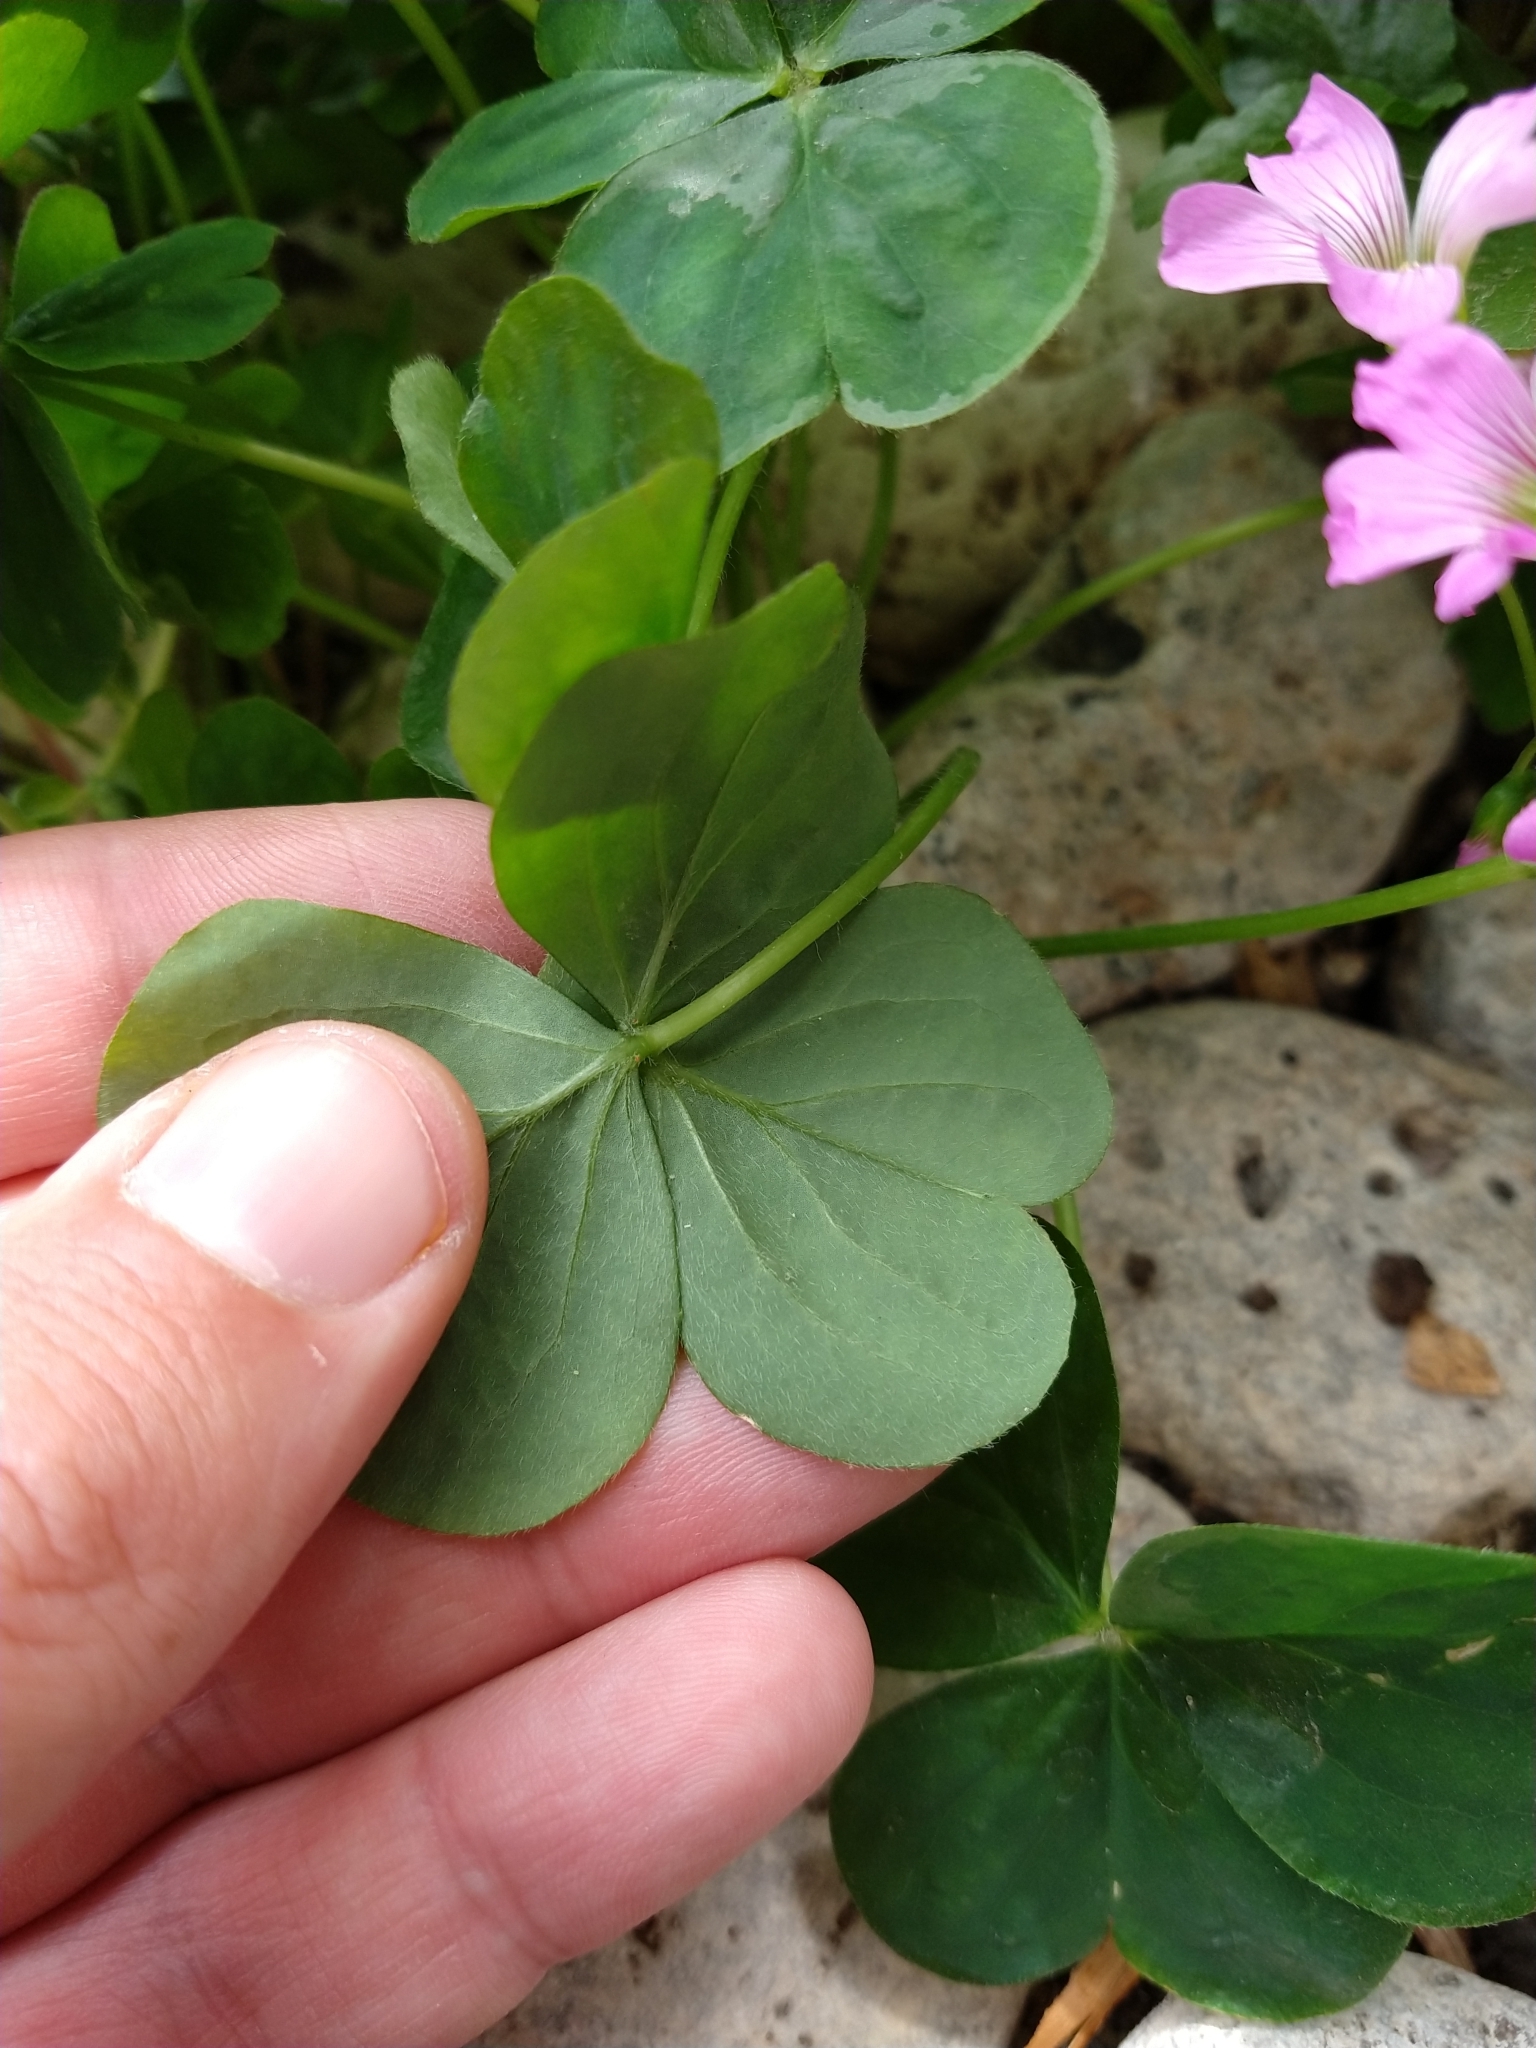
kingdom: Plantae
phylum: Tracheophyta
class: Magnoliopsida
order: Oxalidales
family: Oxalidaceae
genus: Oxalis
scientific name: Oxalis debilis
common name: Large-flowered pink-sorrel
